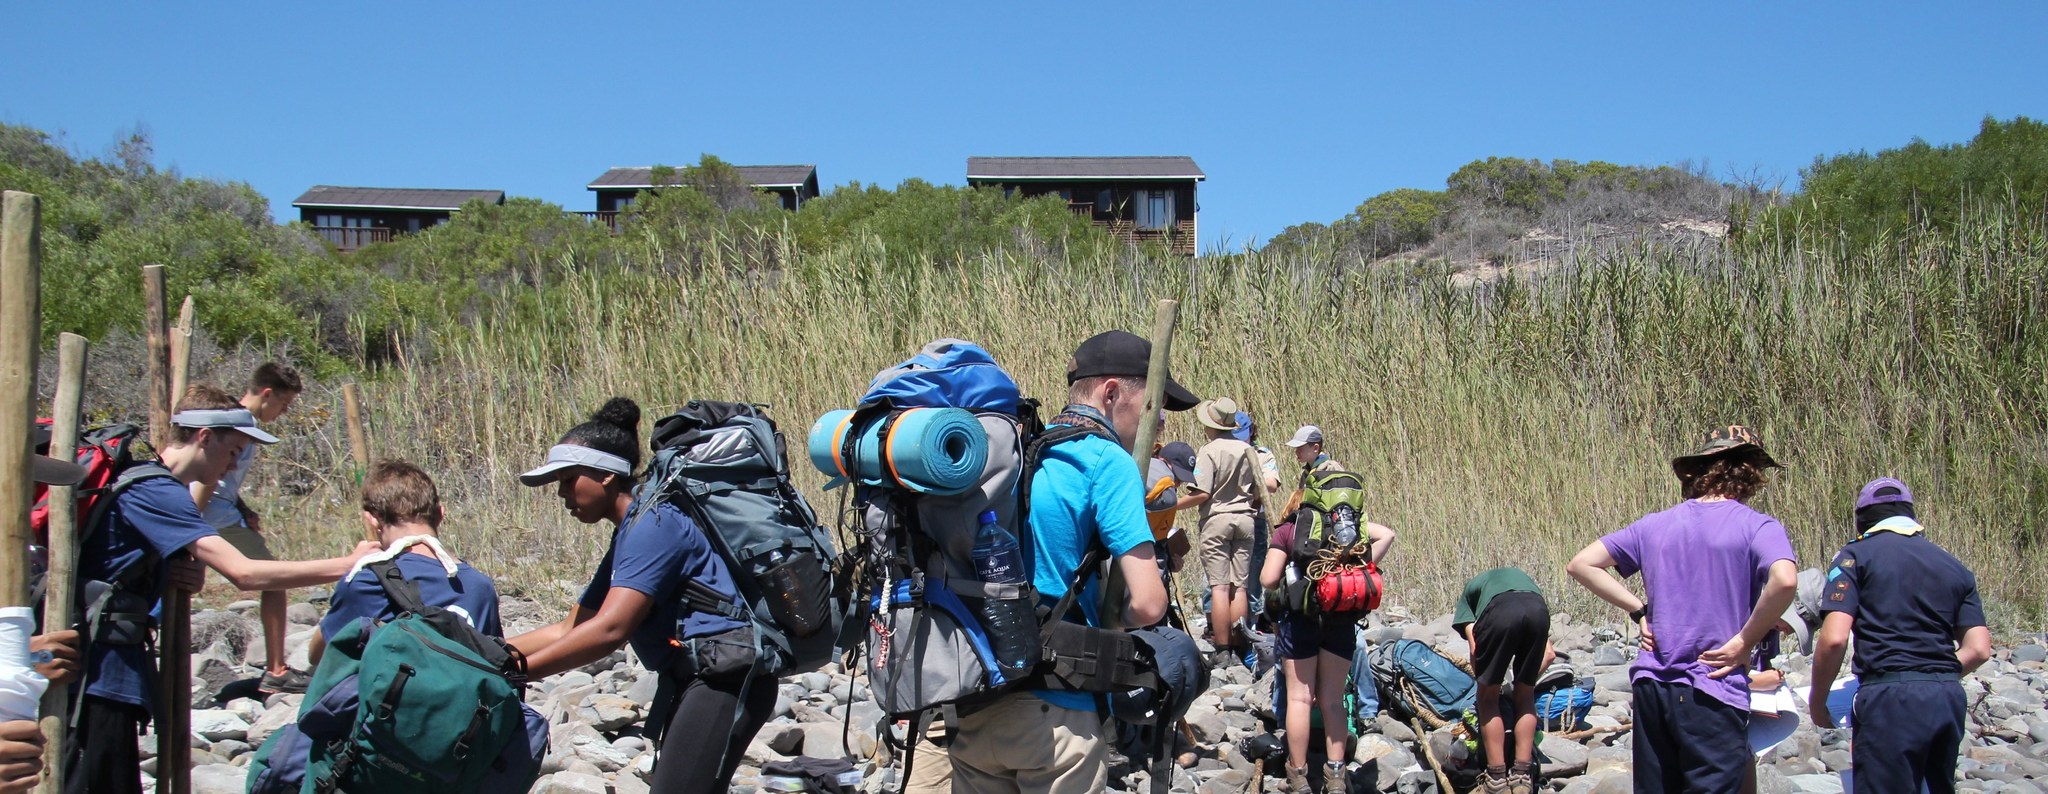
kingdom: Plantae
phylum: Tracheophyta
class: Liliopsida
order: Poales
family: Poaceae
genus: Phragmites
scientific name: Phragmites australis
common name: Common reed
